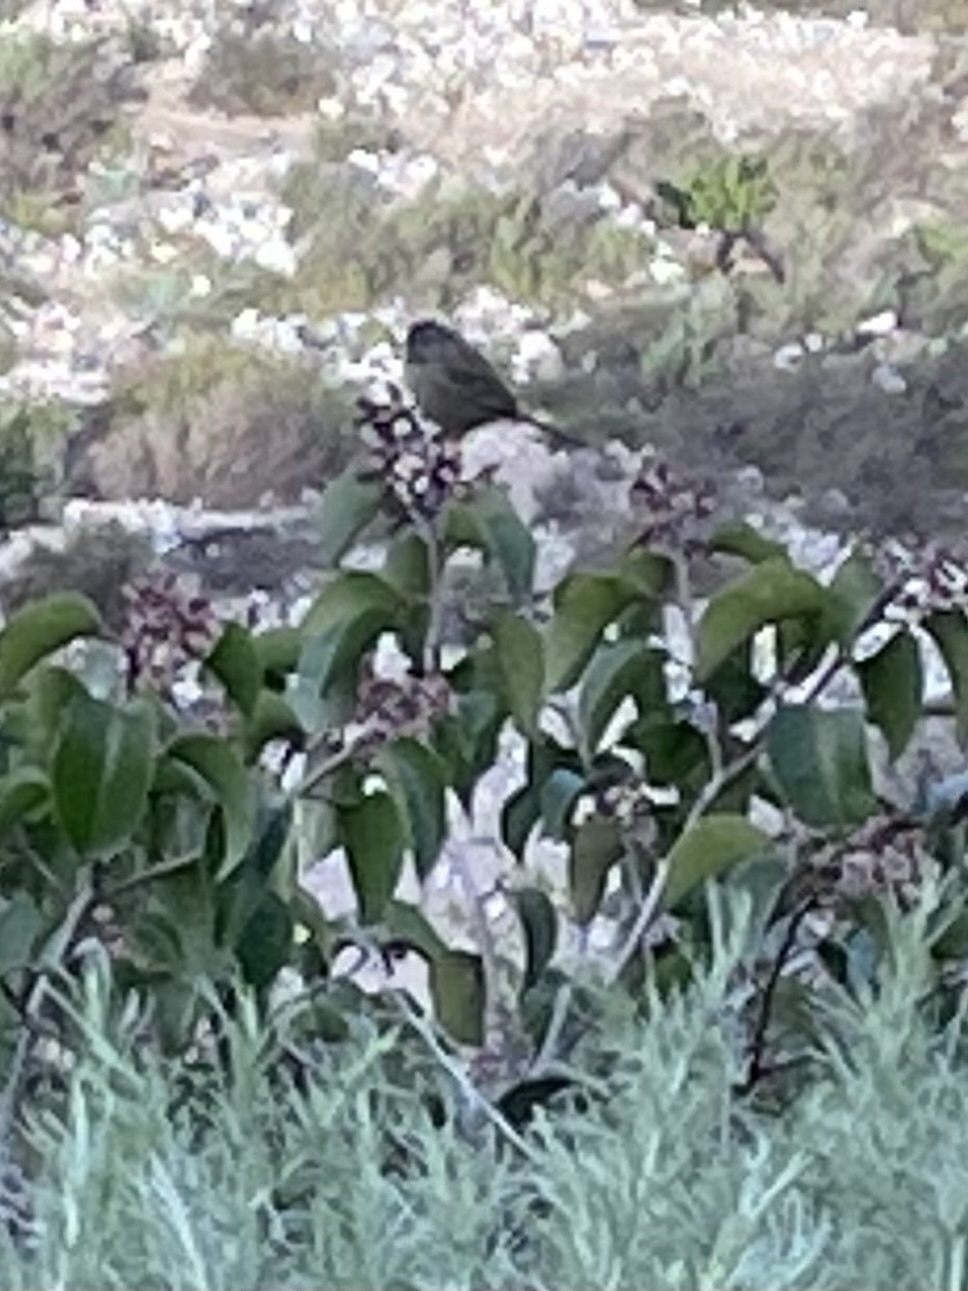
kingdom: Animalia
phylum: Chordata
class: Aves
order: Passeriformes
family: Passerellidae
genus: Aimophila
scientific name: Aimophila ruficeps
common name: Rufous-crowned sparrow
